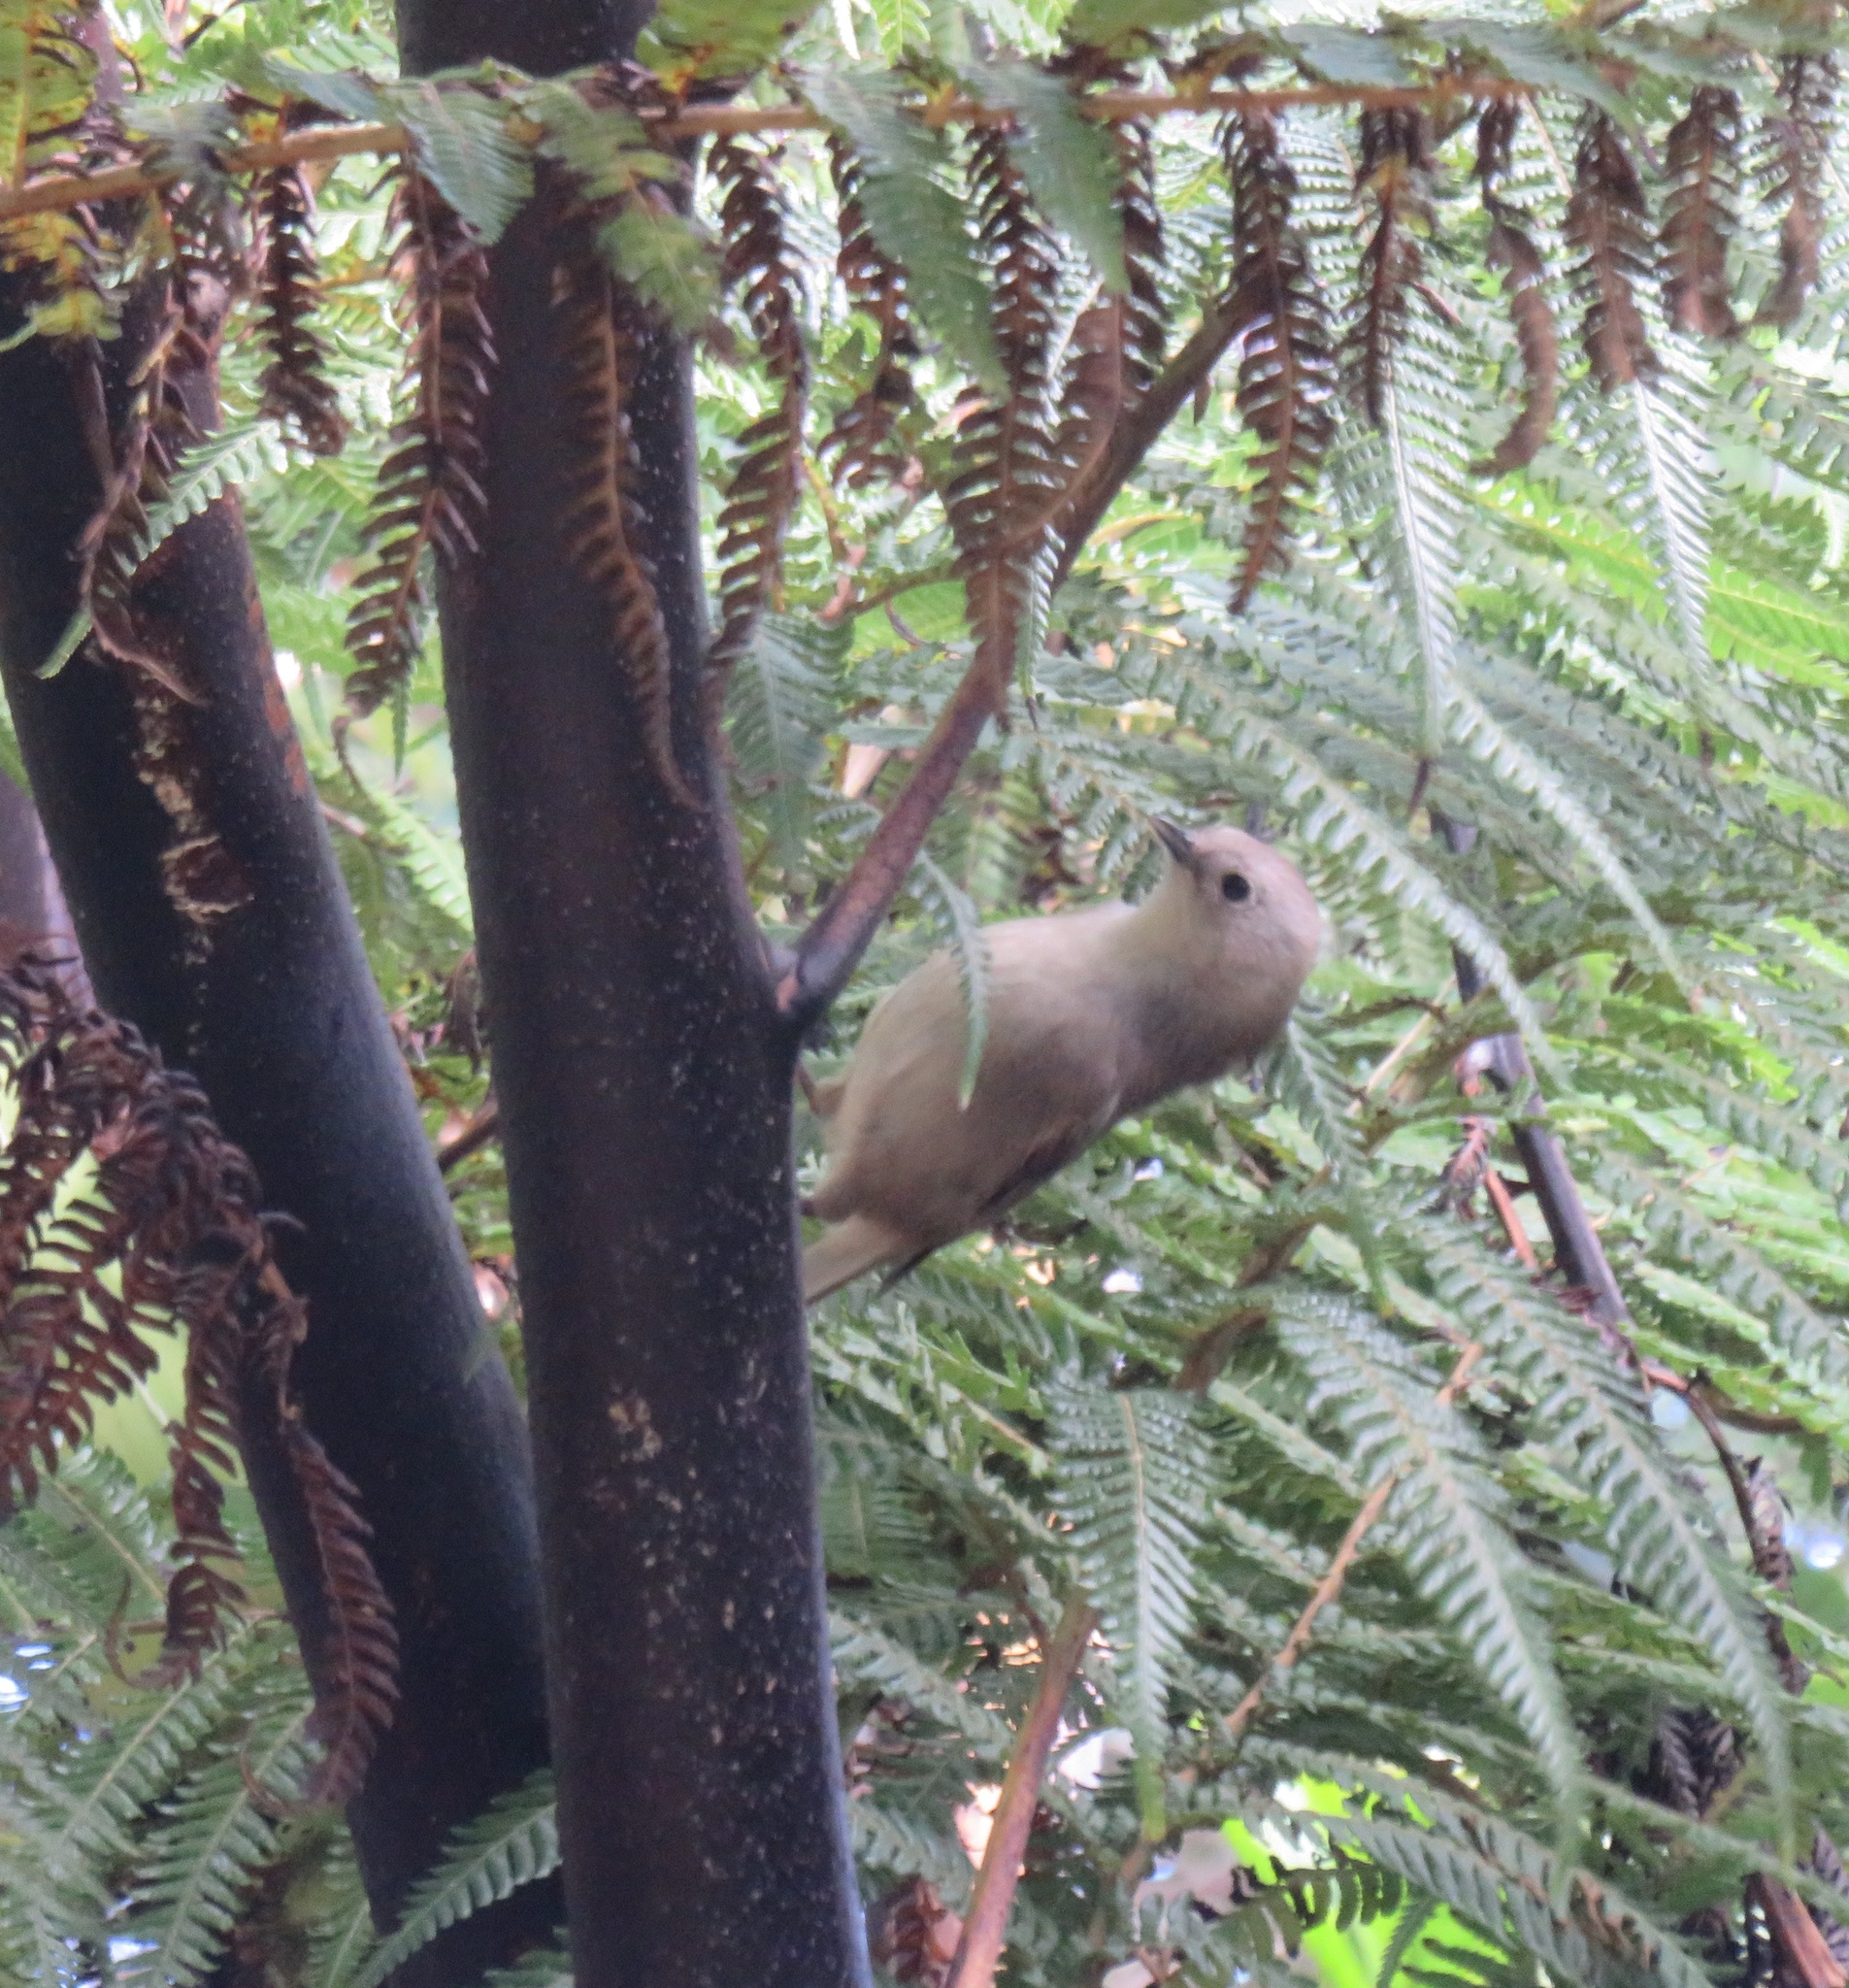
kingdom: Animalia
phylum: Chordata
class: Aves
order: Passeriformes
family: Acanthizidae
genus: Mohoua
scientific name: Mohoua albicilla
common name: Whitehead
